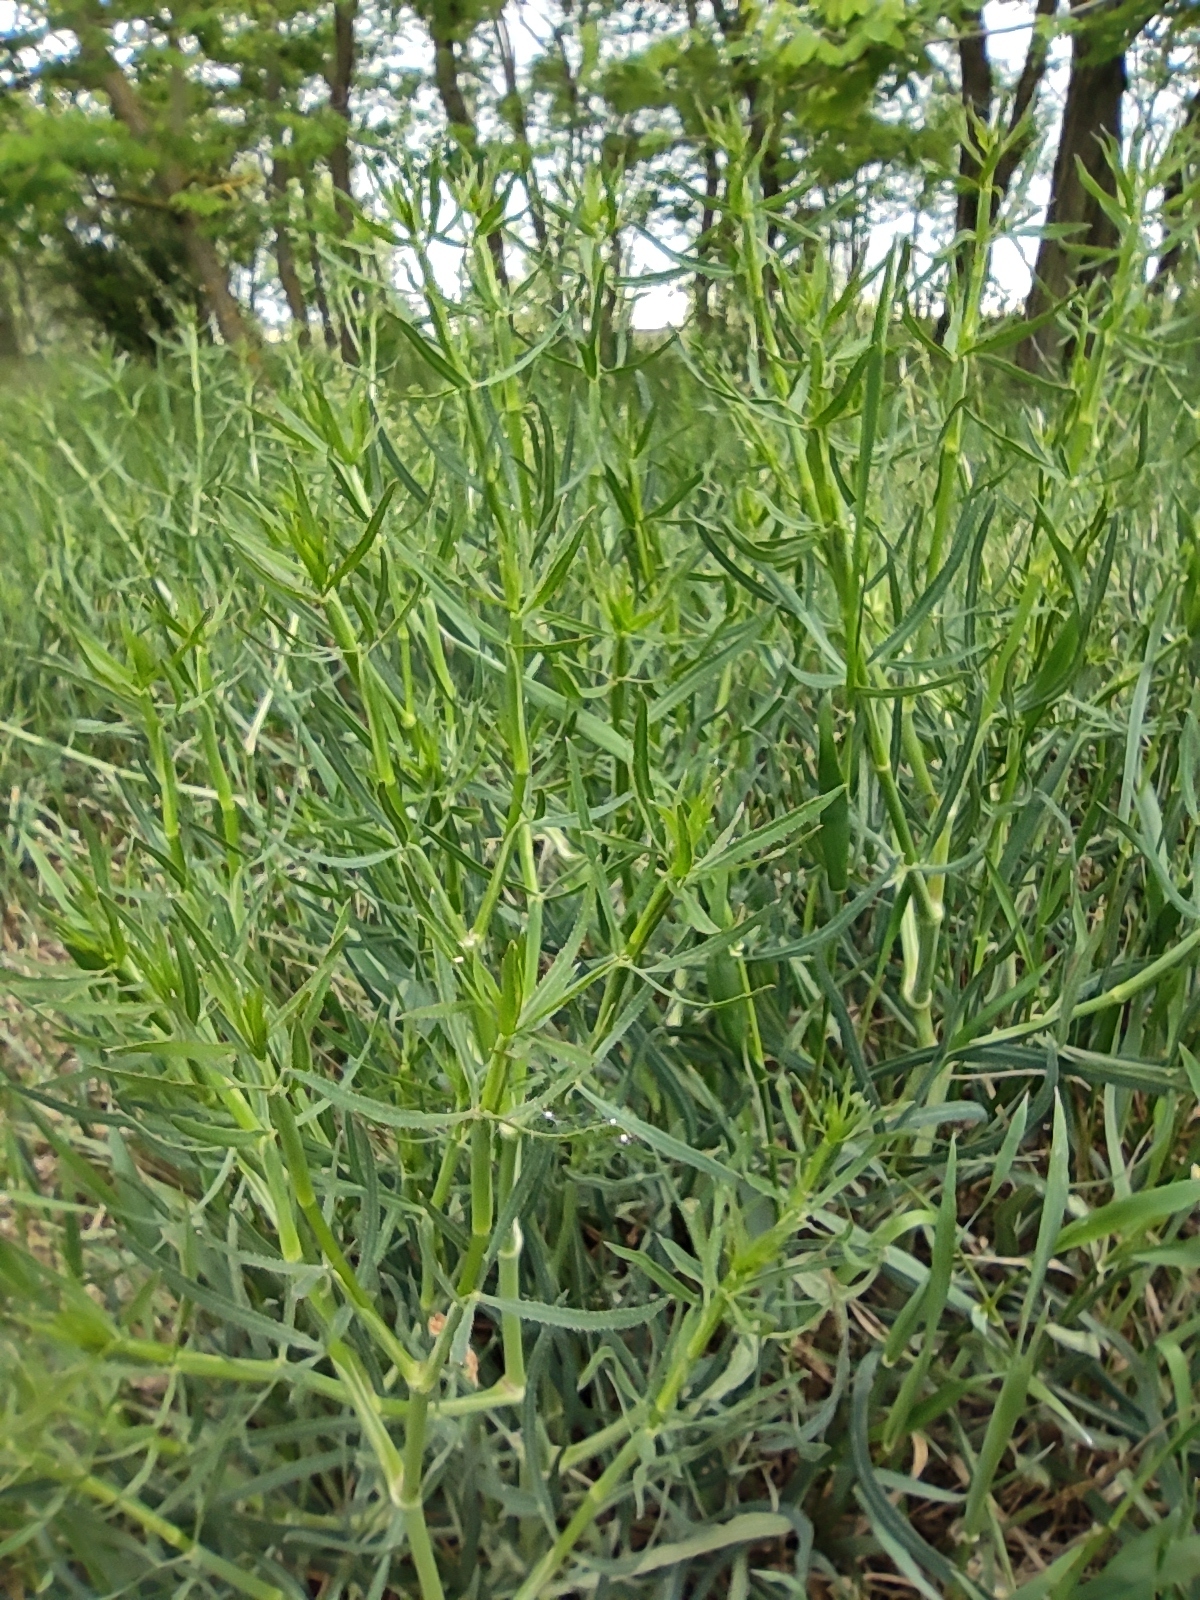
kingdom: Plantae
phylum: Tracheophyta
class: Magnoliopsida
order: Apiales
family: Apiaceae
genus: Falcaria
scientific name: Falcaria vulgaris
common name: Longleaf
